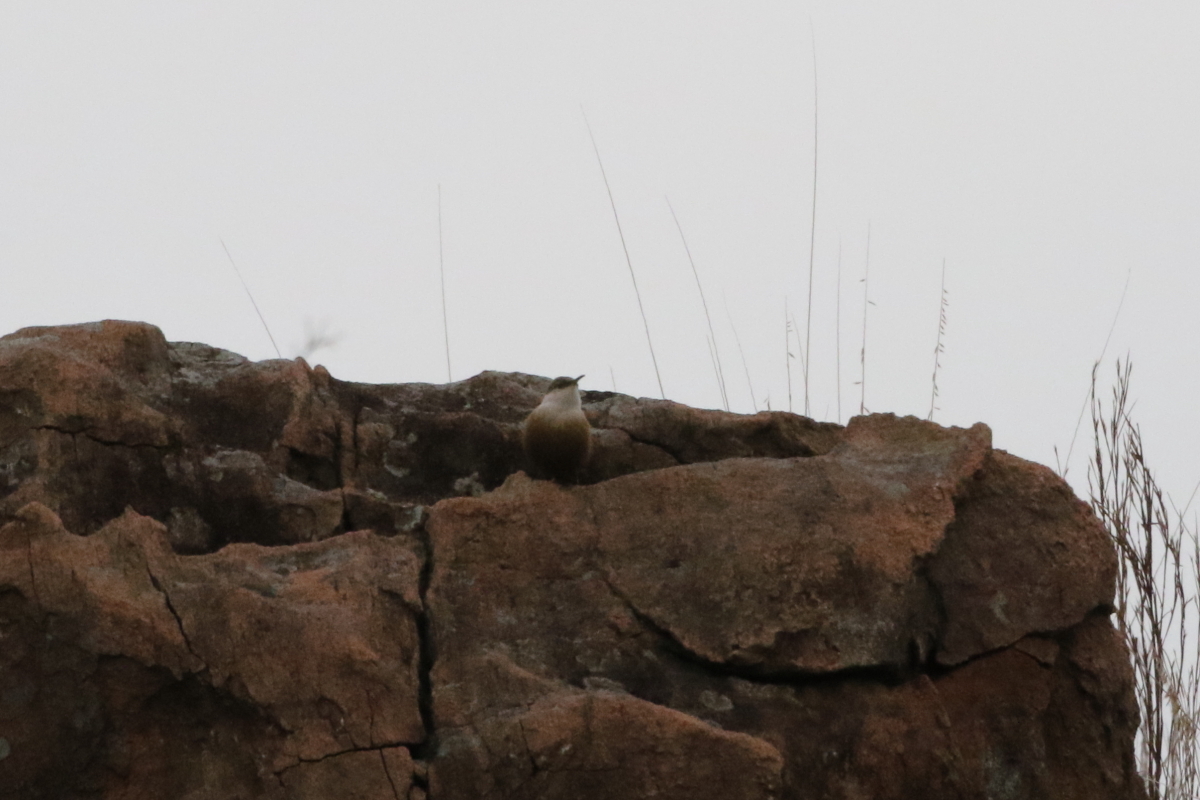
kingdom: Animalia
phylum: Chordata
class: Aves
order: Passeriformes
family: Troglodytidae
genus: Catherpes
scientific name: Catherpes mexicanus
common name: Canyon wren
